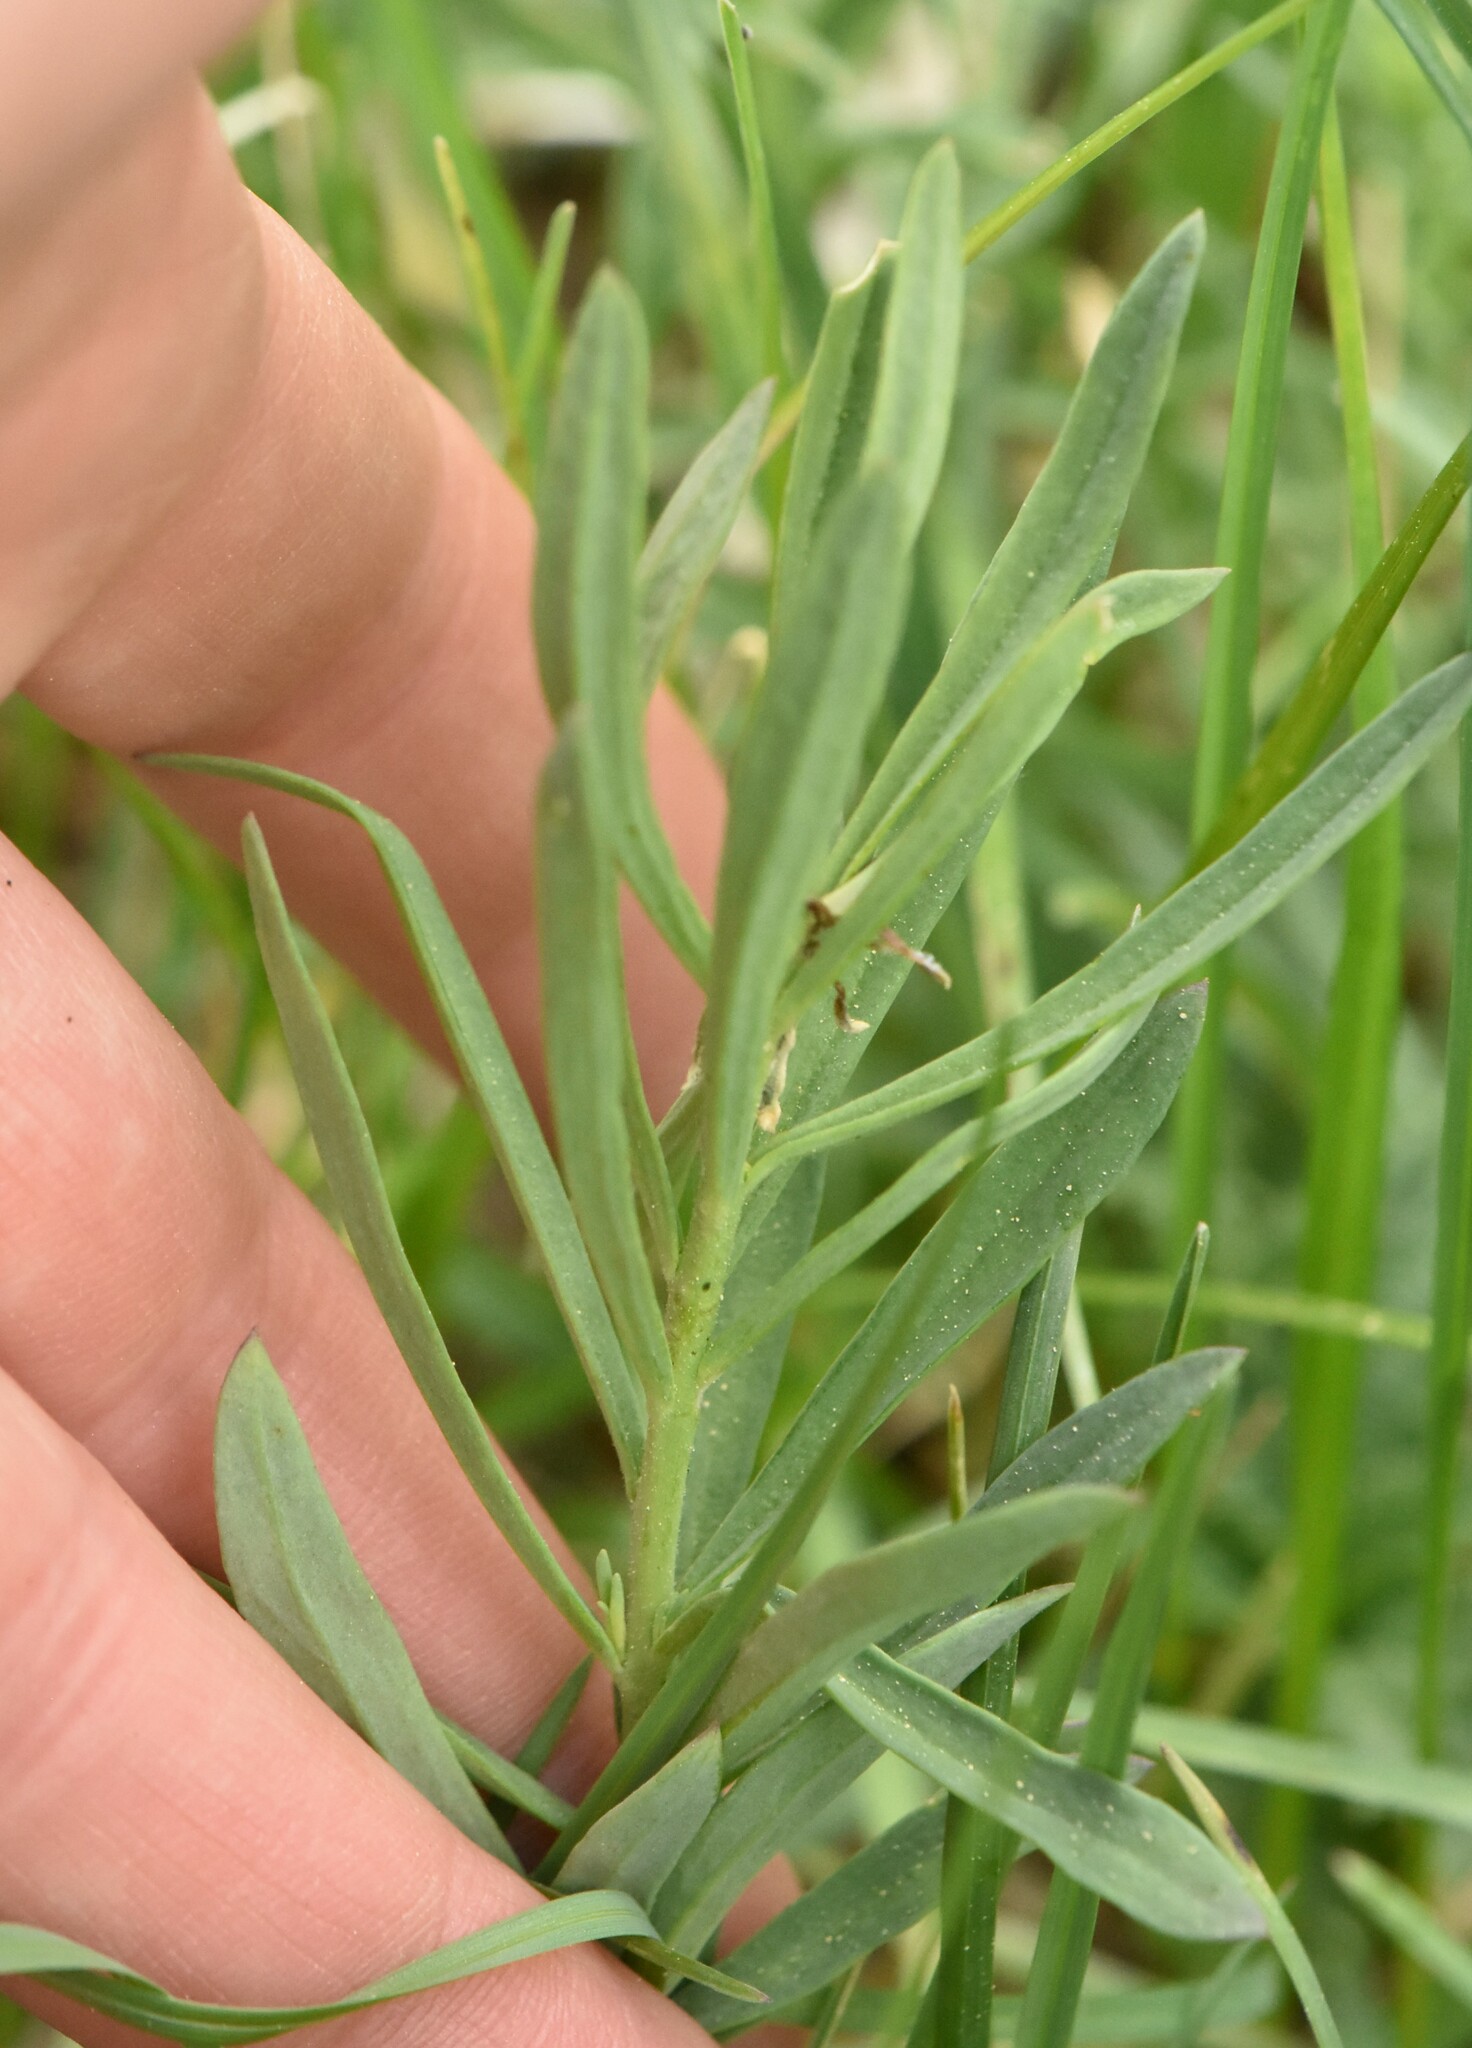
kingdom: Plantae
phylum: Tracheophyta
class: Magnoliopsida
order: Lamiales
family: Plantaginaceae
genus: Linaria
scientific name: Linaria vulgaris
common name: Butter and eggs
